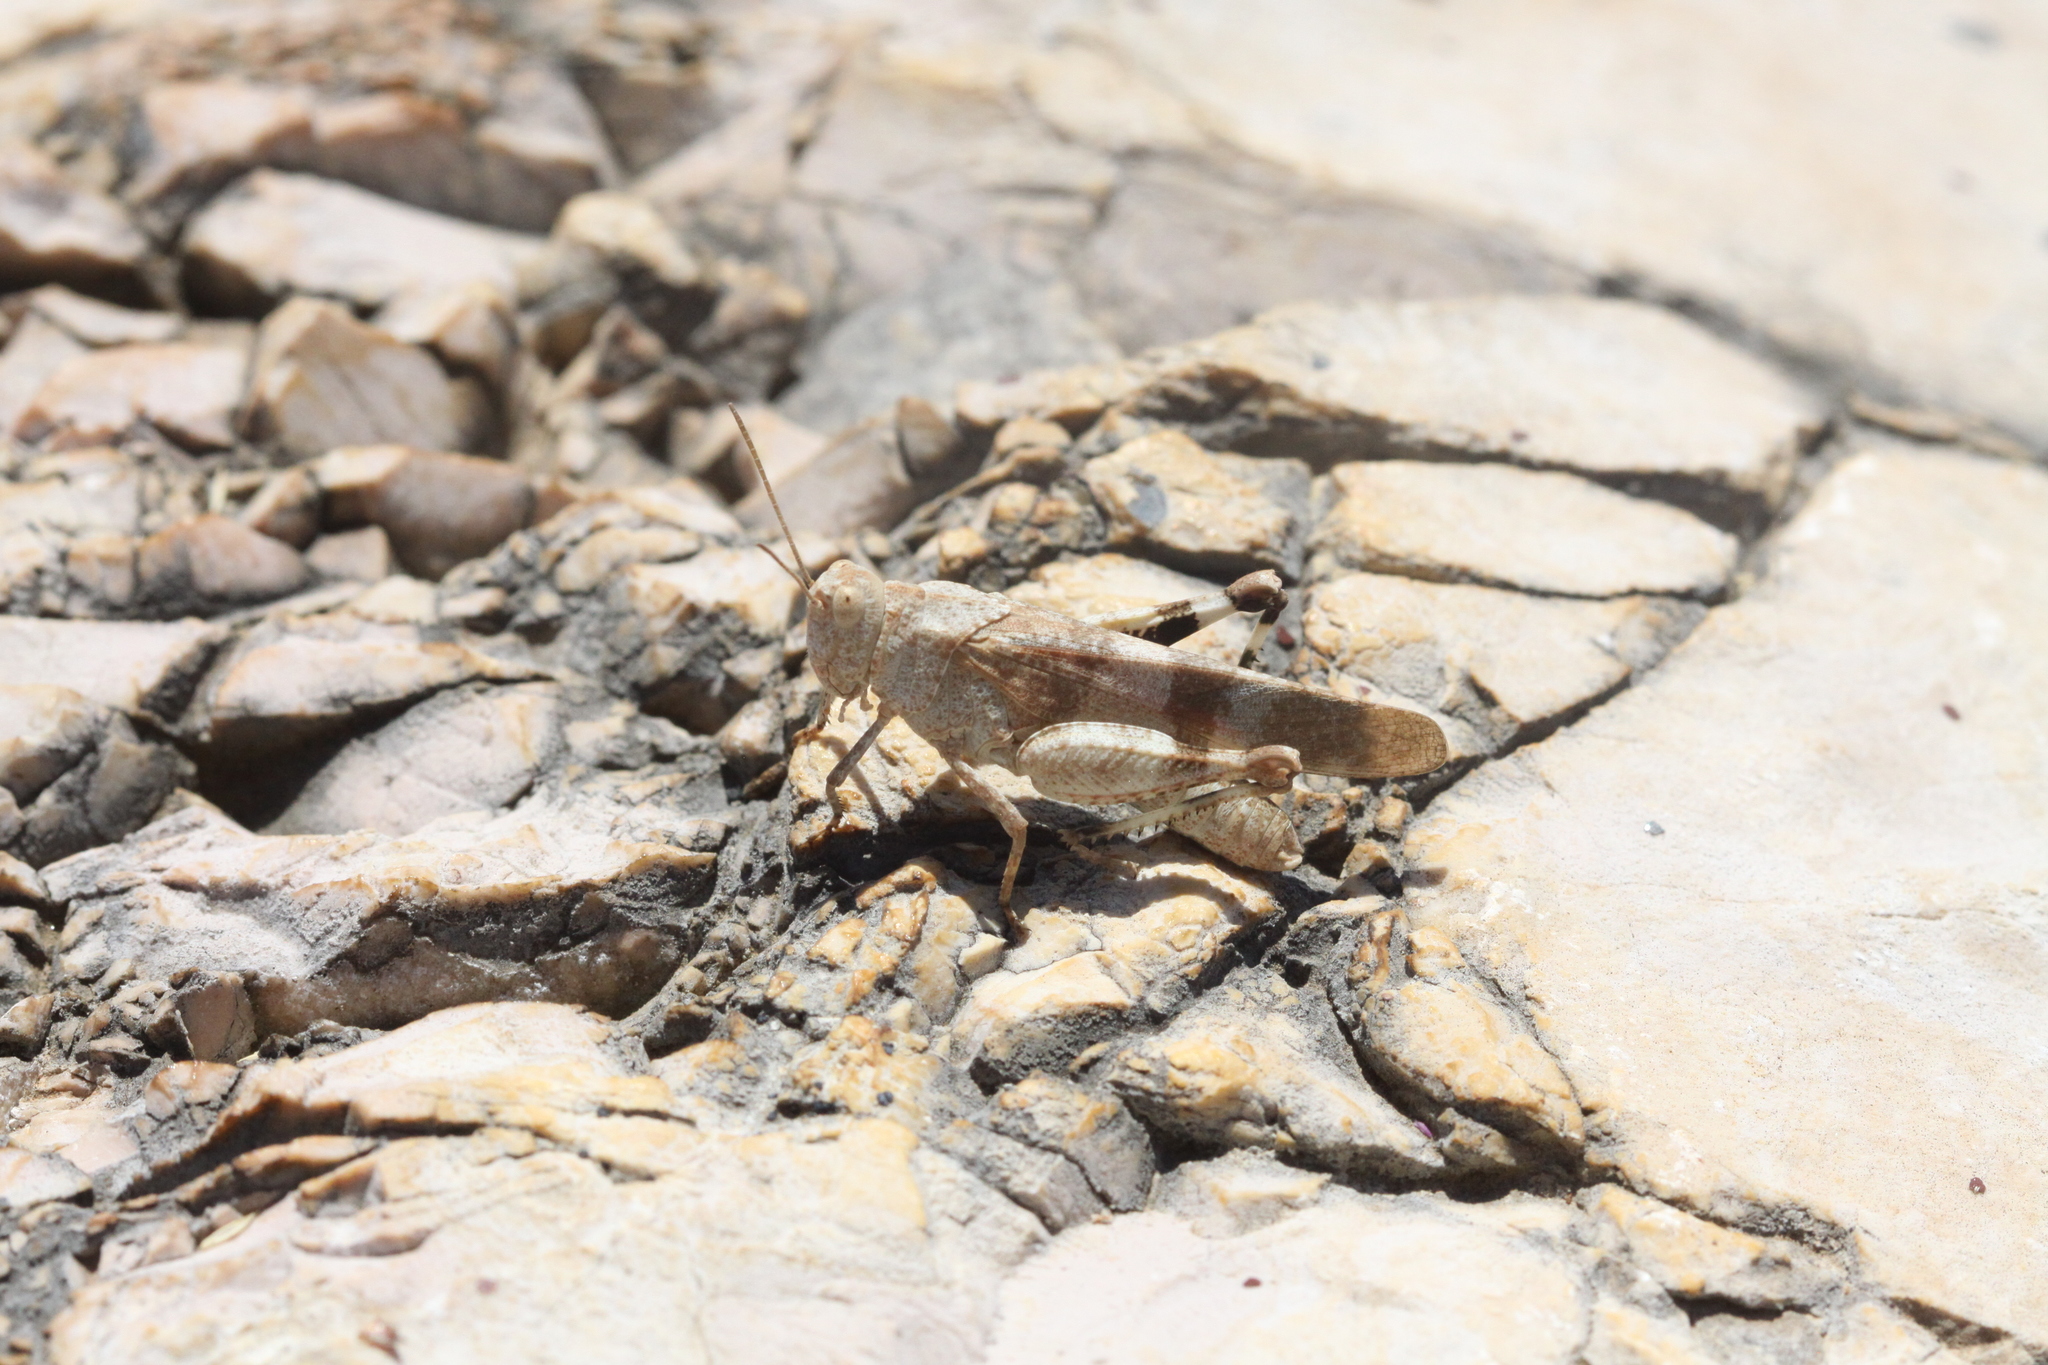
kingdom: Animalia
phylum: Arthropoda
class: Insecta
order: Orthoptera
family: Acrididae
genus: Oedipoda
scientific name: Oedipoda germanica
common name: Red band-winged grasshopper
